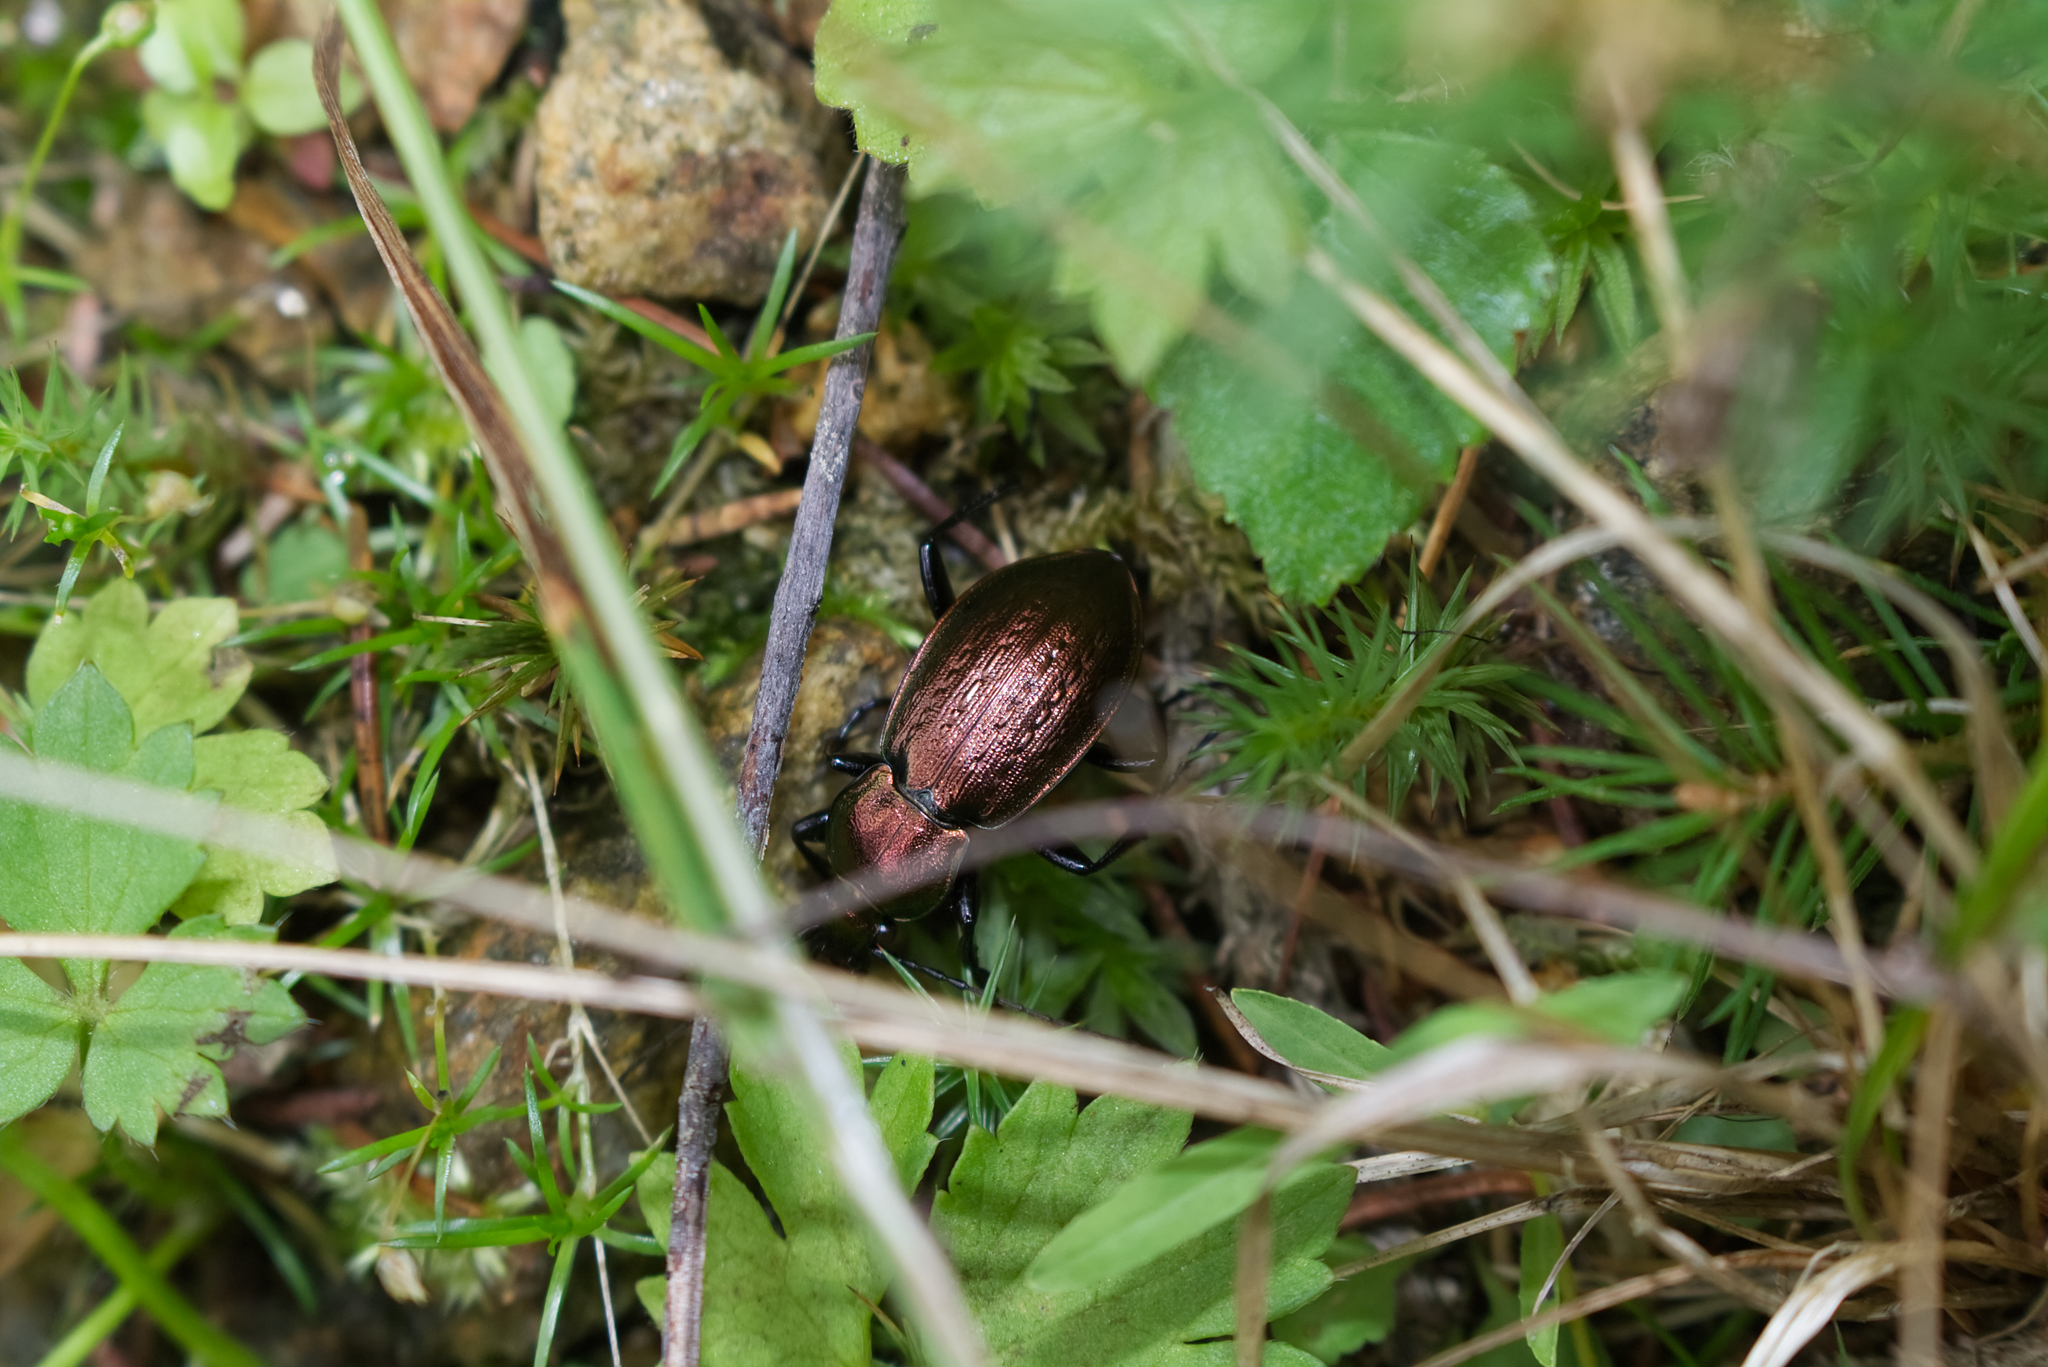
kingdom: Animalia
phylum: Arthropoda
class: Insecta
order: Coleoptera
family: Carabidae
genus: Carabus
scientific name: Carabus arvensis
